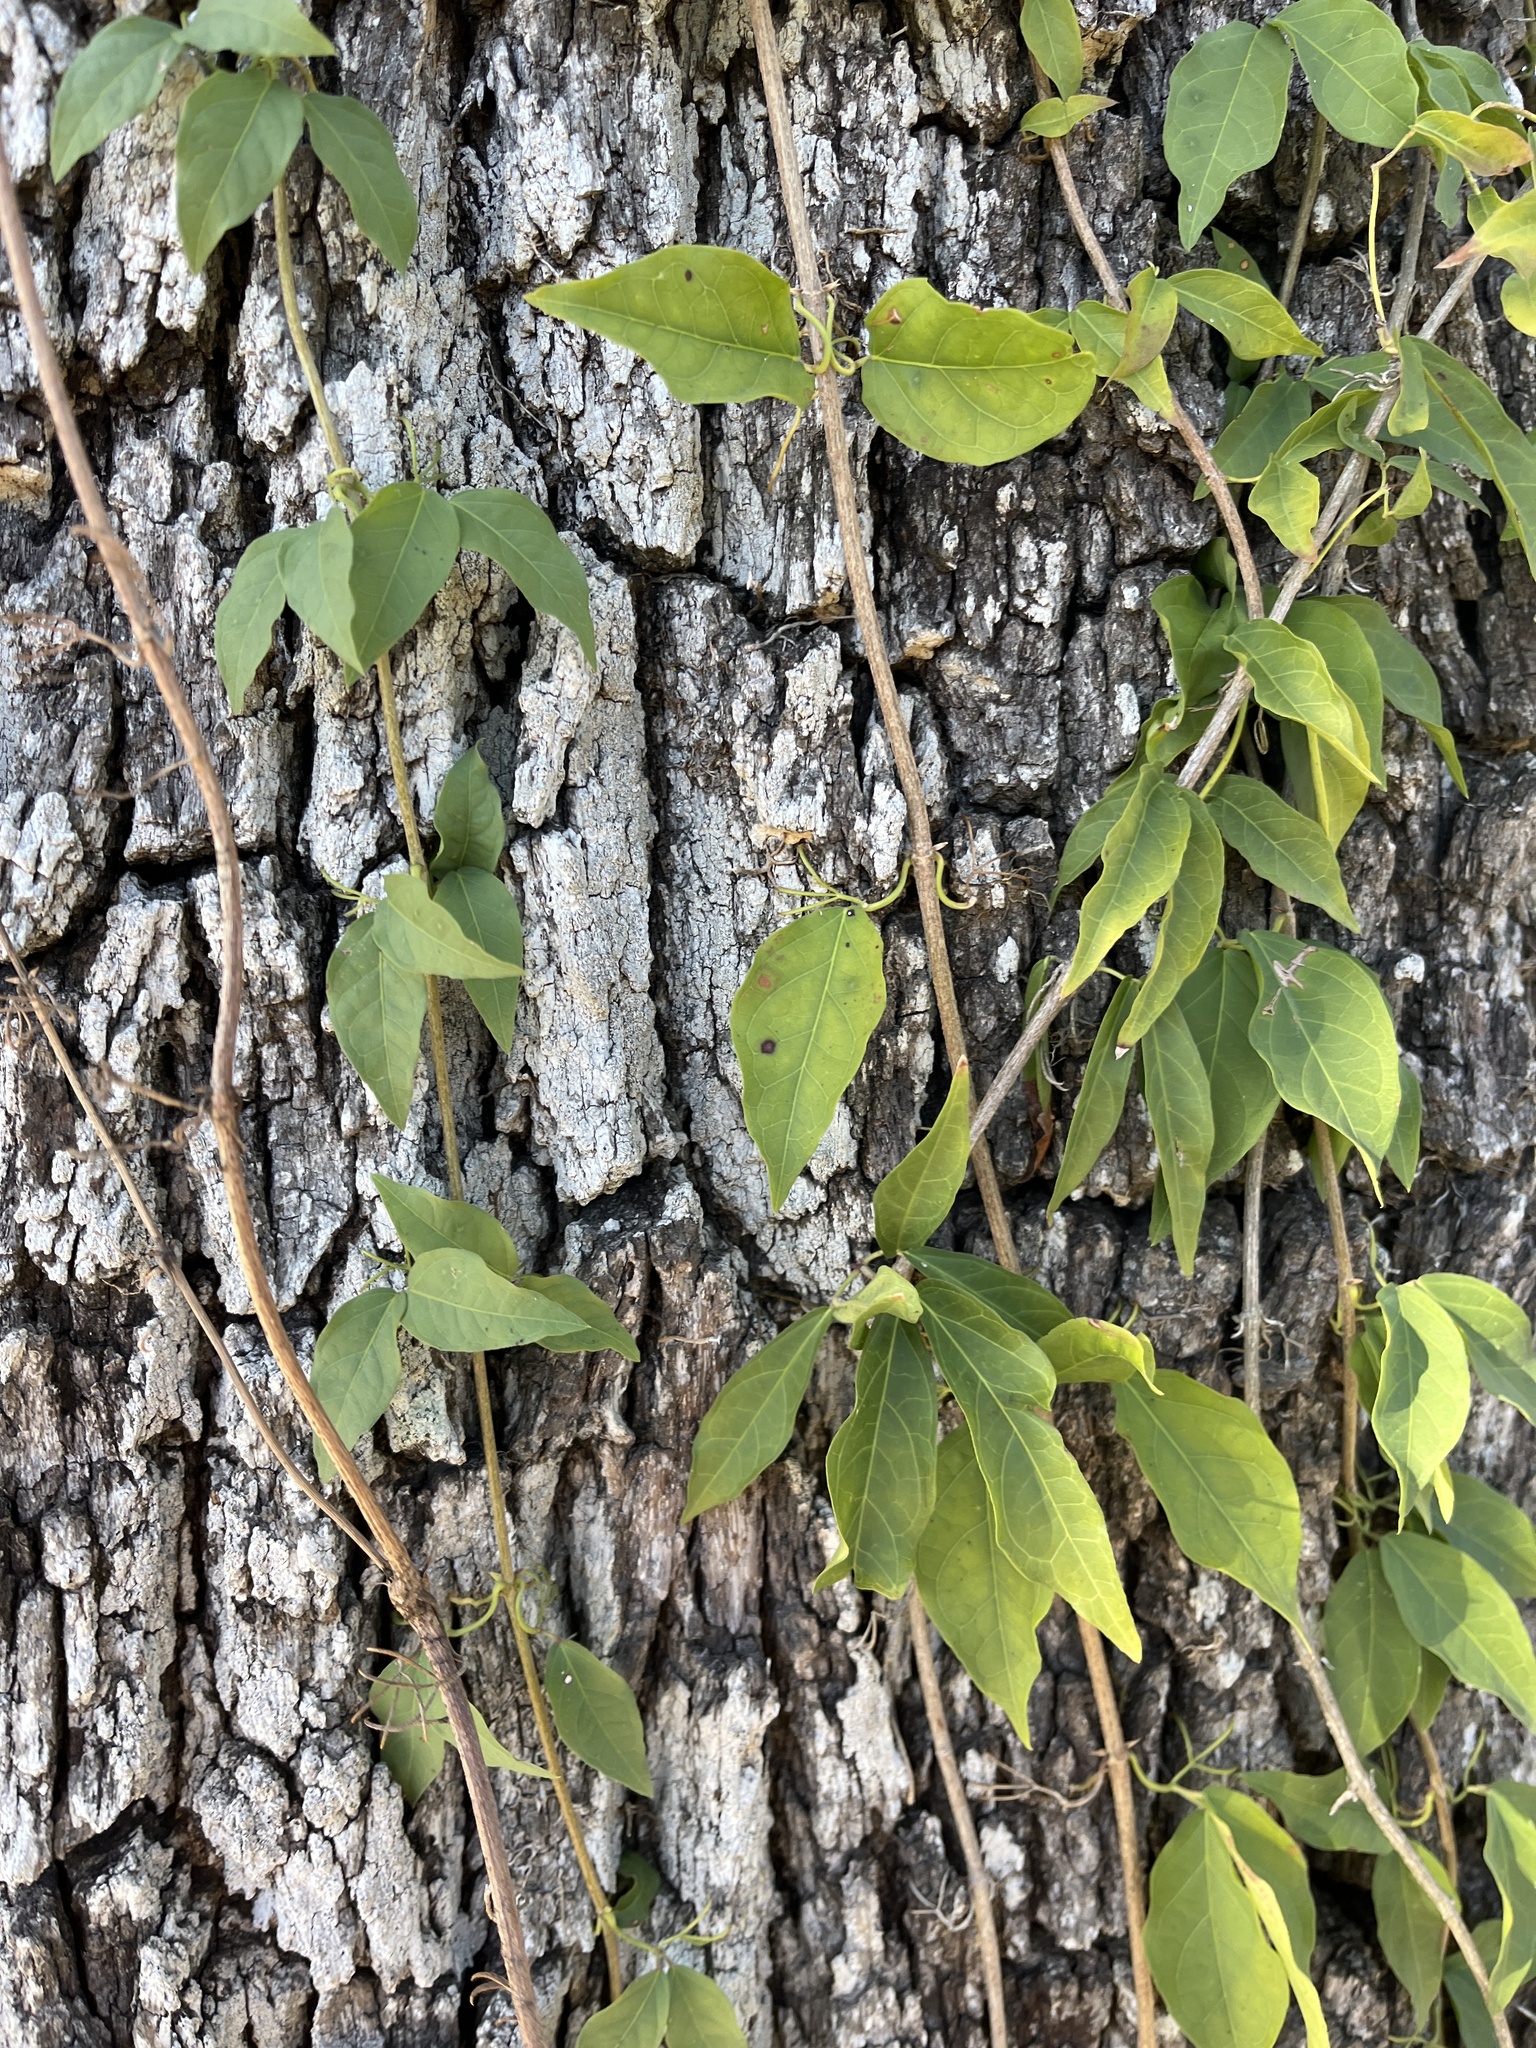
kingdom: Plantae
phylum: Tracheophyta
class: Magnoliopsida
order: Lamiales
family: Bignoniaceae
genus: Dolichandra
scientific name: Dolichandra unguis-cati
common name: Catclaw vine
